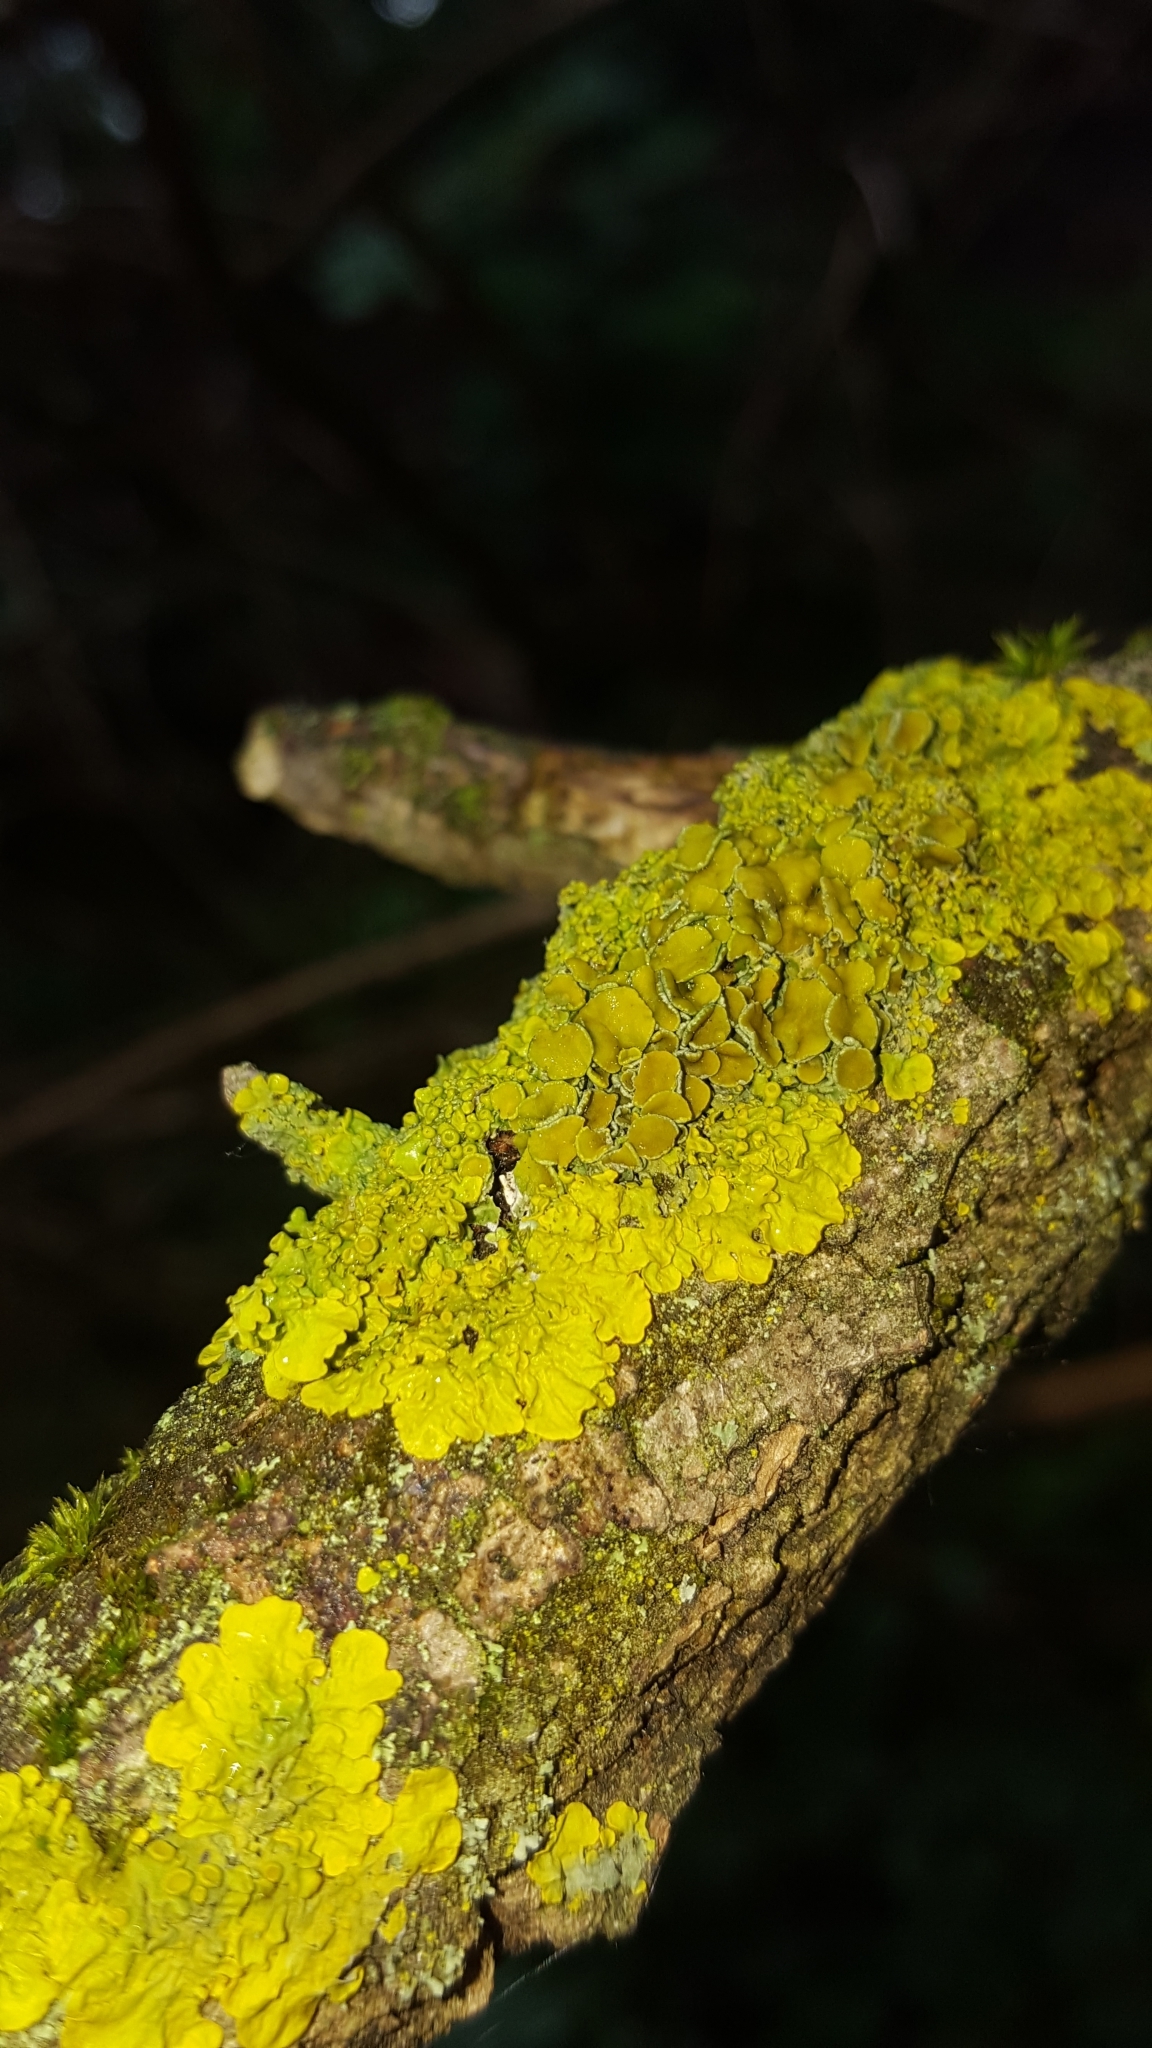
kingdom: Fungi
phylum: Ascomycota
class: Lecanoromycetes
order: Teloschistales
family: Teloschistaceae
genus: Xanthoria
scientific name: Xanthoria parietina
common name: Common orange lichen
